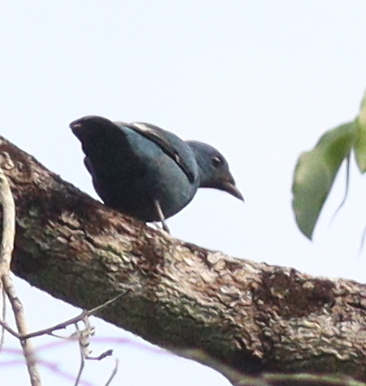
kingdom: Animalia
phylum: Chordata
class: Aves
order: Passeriformes
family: Campephagidae
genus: Coracina
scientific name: Coracina azurea
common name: Blue cuckooshrike
